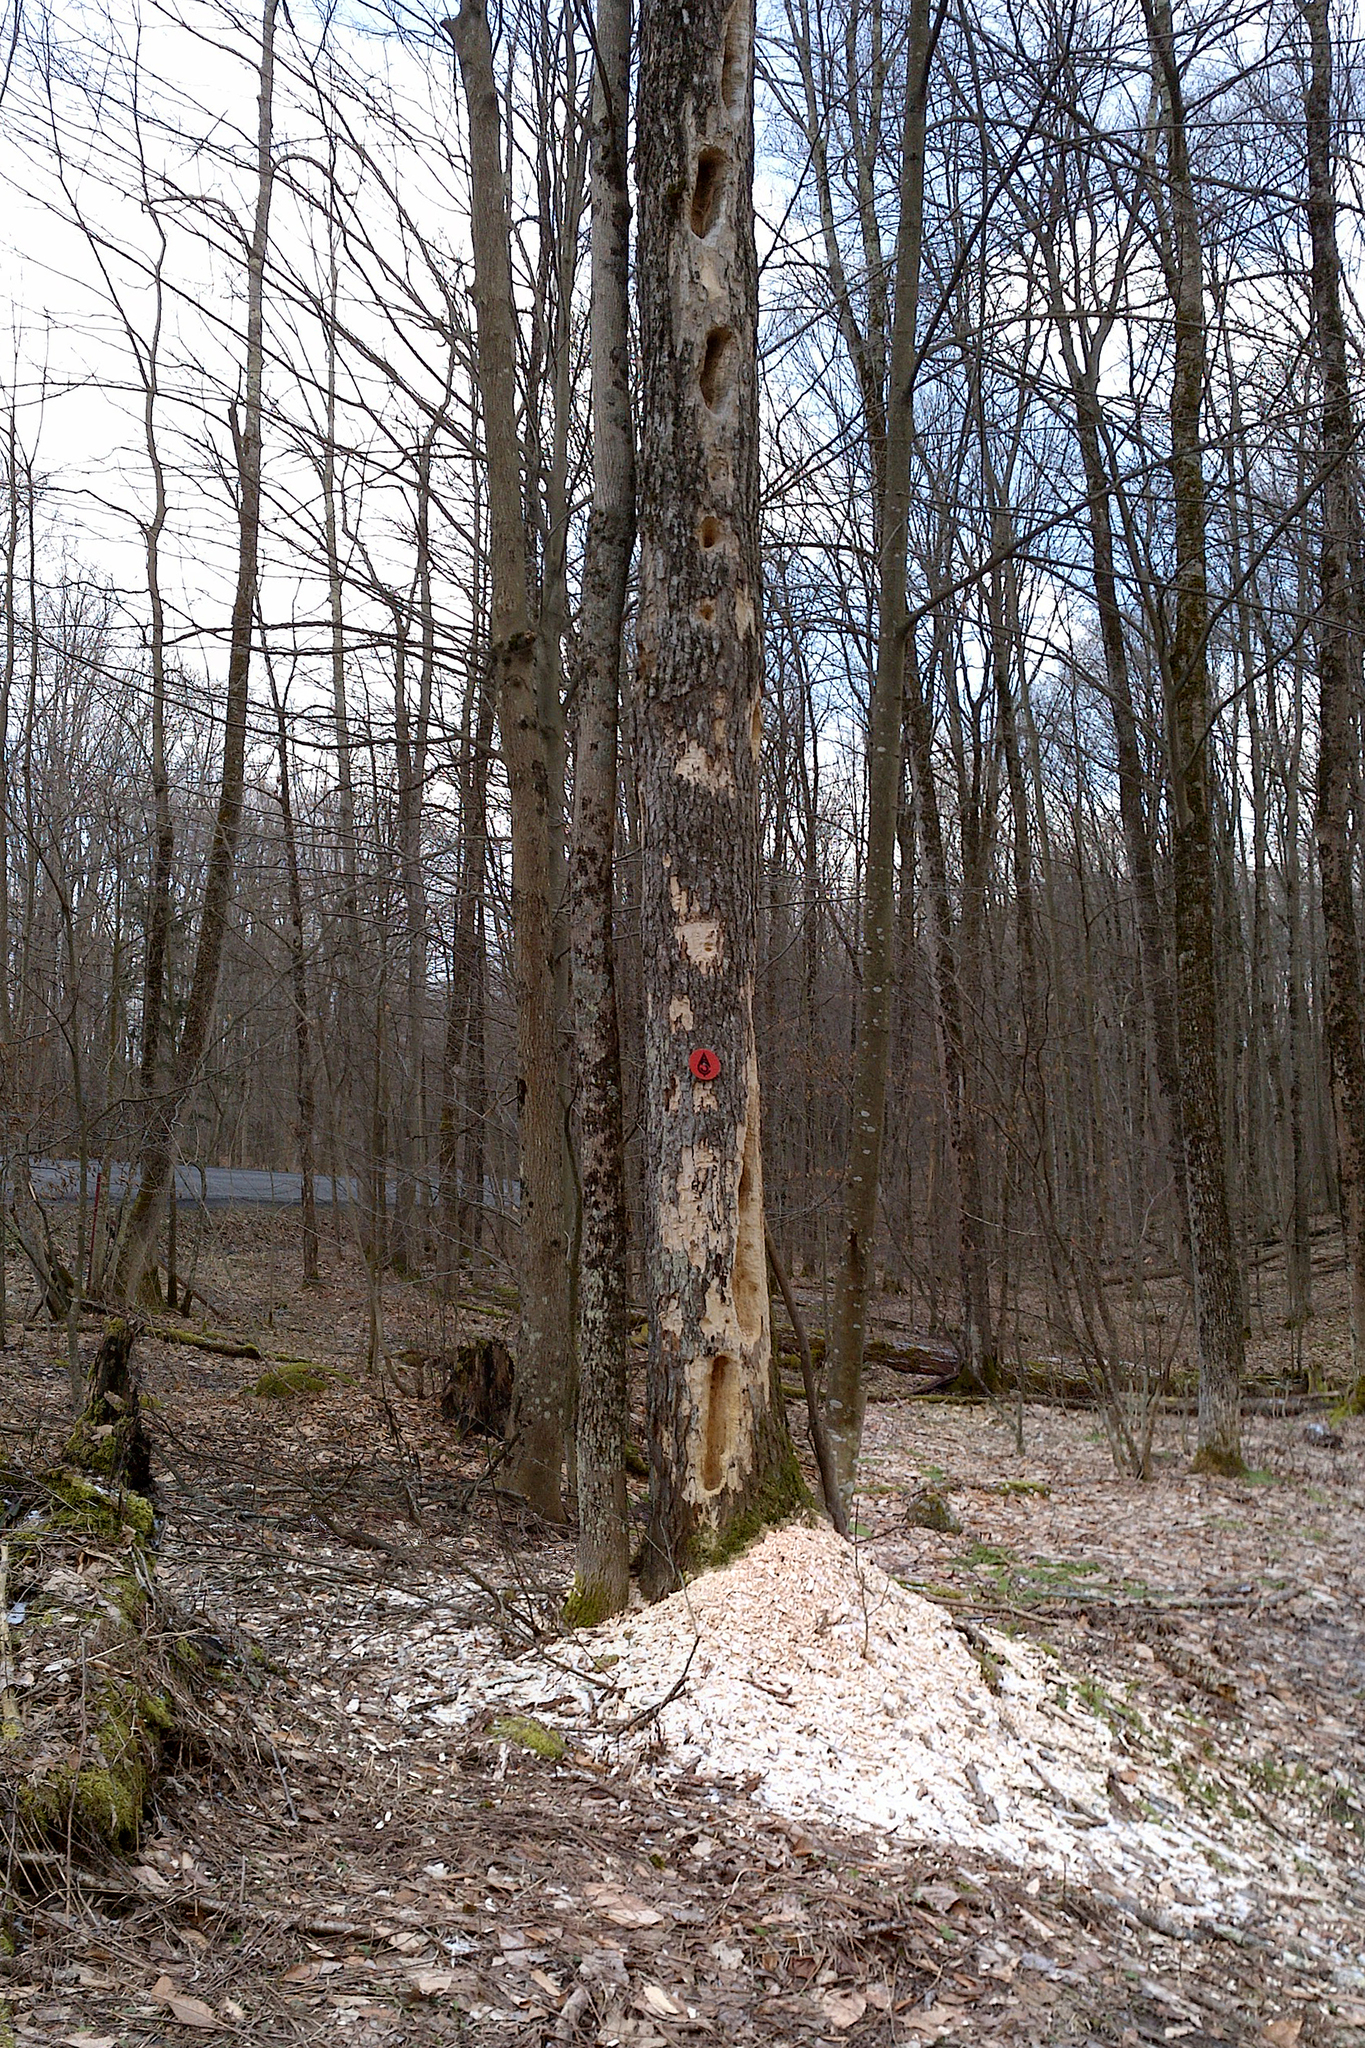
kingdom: Animalia
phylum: Chordata
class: Aves
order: Piciformes
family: Picidae
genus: Dryocopus
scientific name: Dryocopus pileatus
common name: Pileated woodpecker
